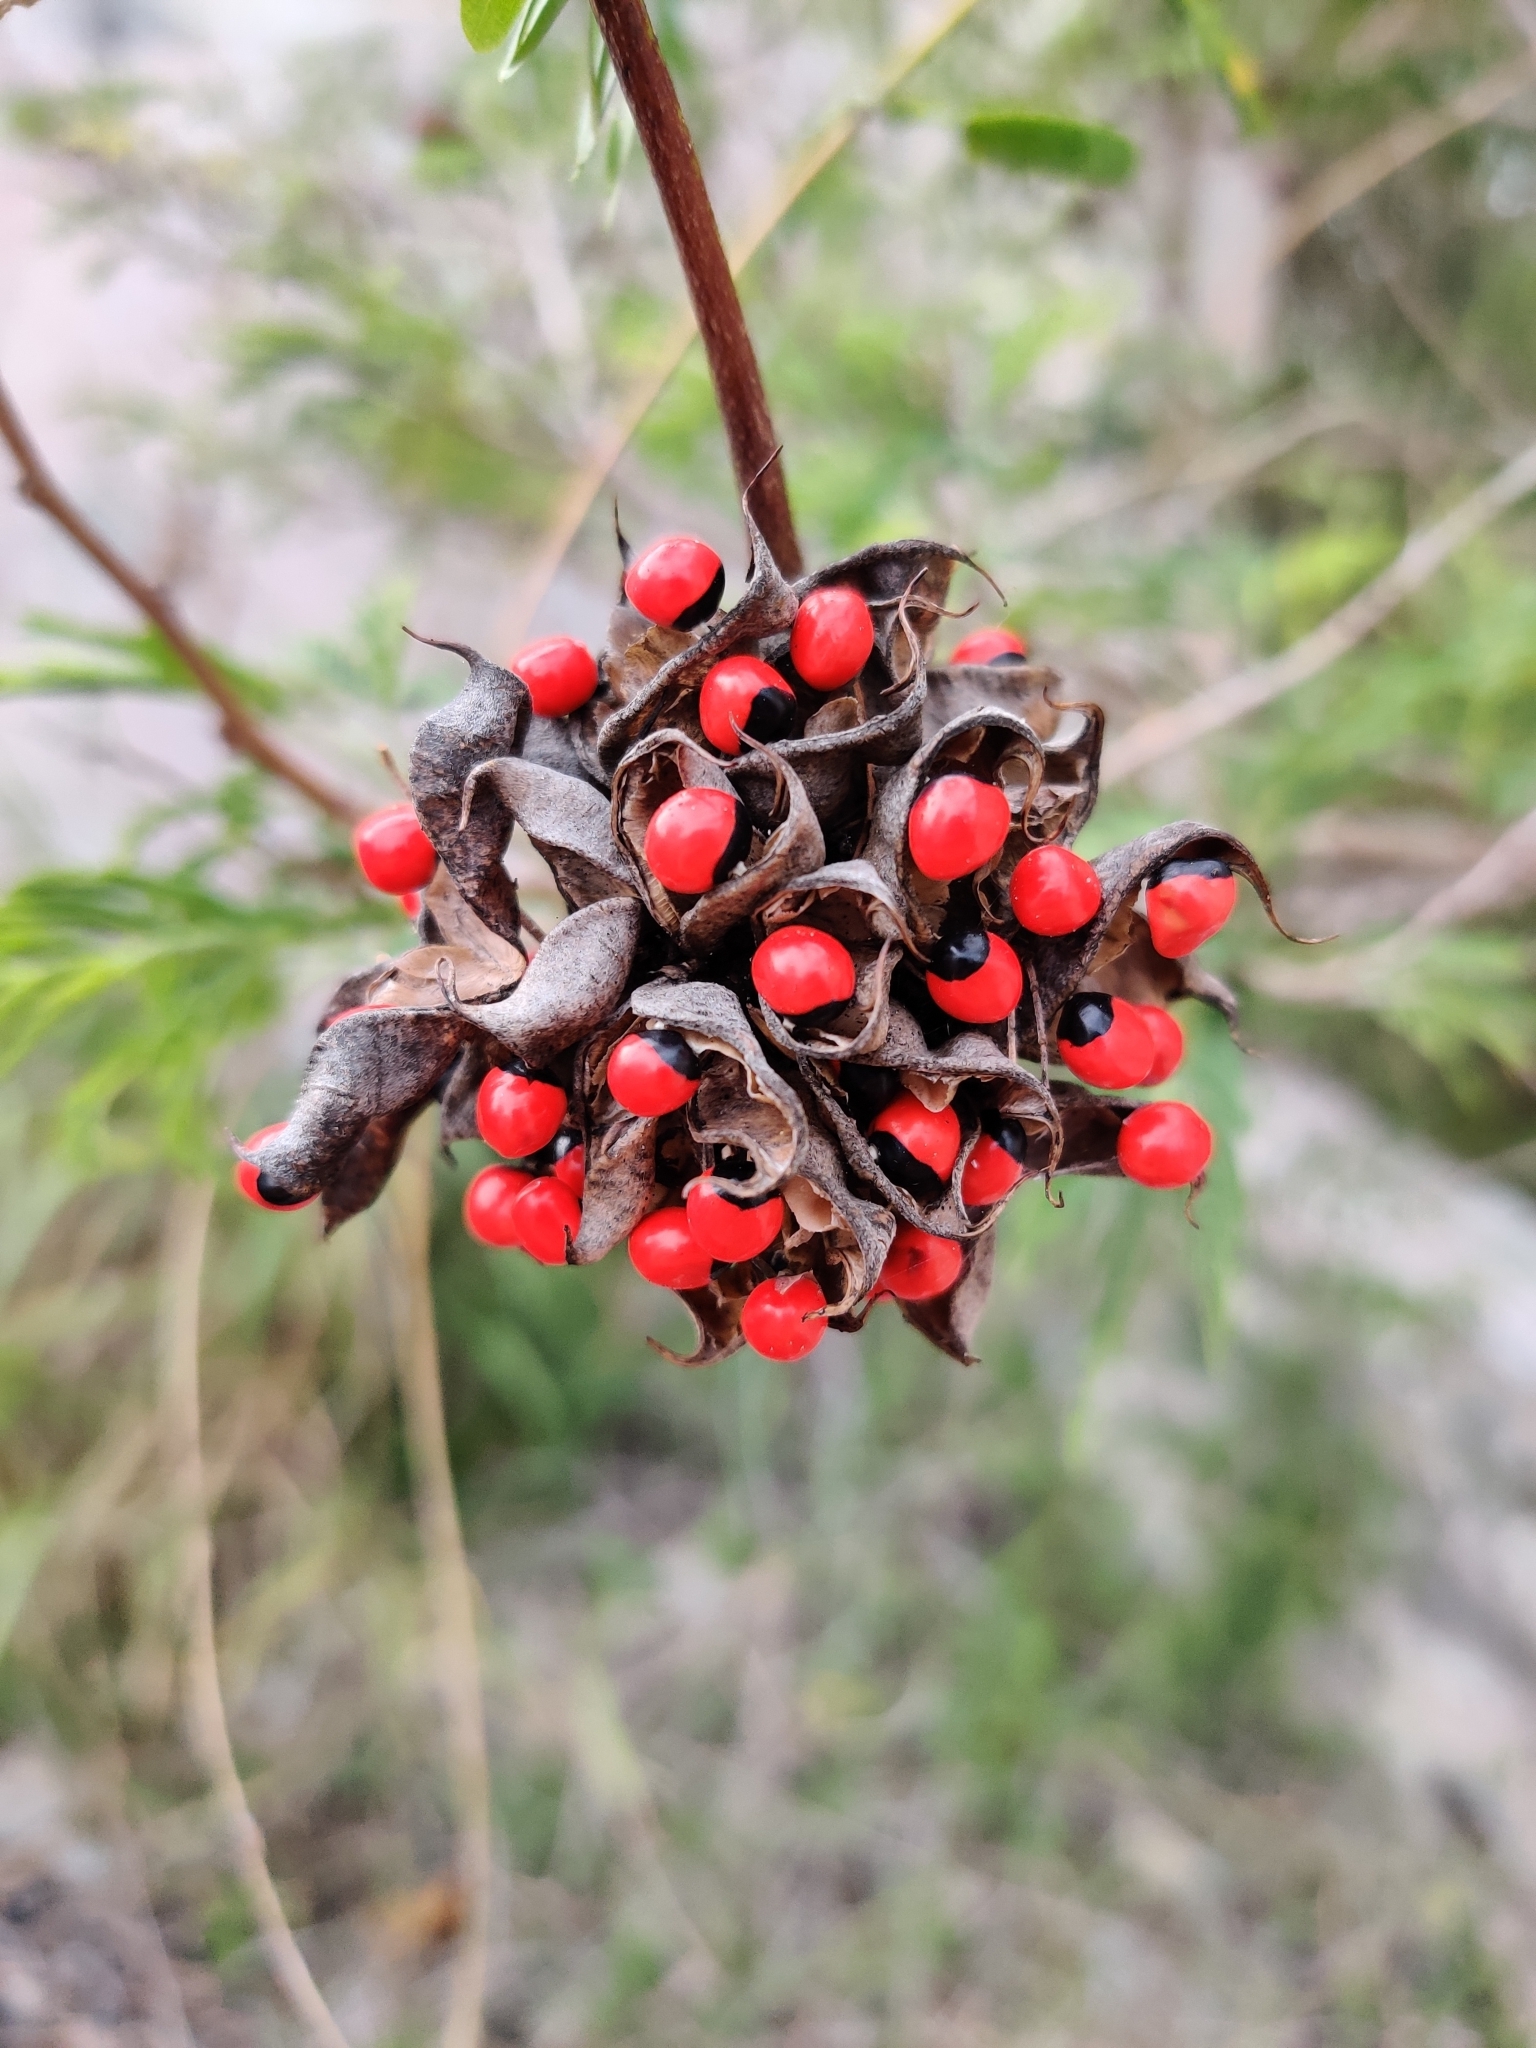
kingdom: Plantae
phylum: Tracheophyta
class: Magnoliopsida
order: Fabales
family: Fabaceae
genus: Abrus
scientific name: Abrus precatorius
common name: Rosarypea
